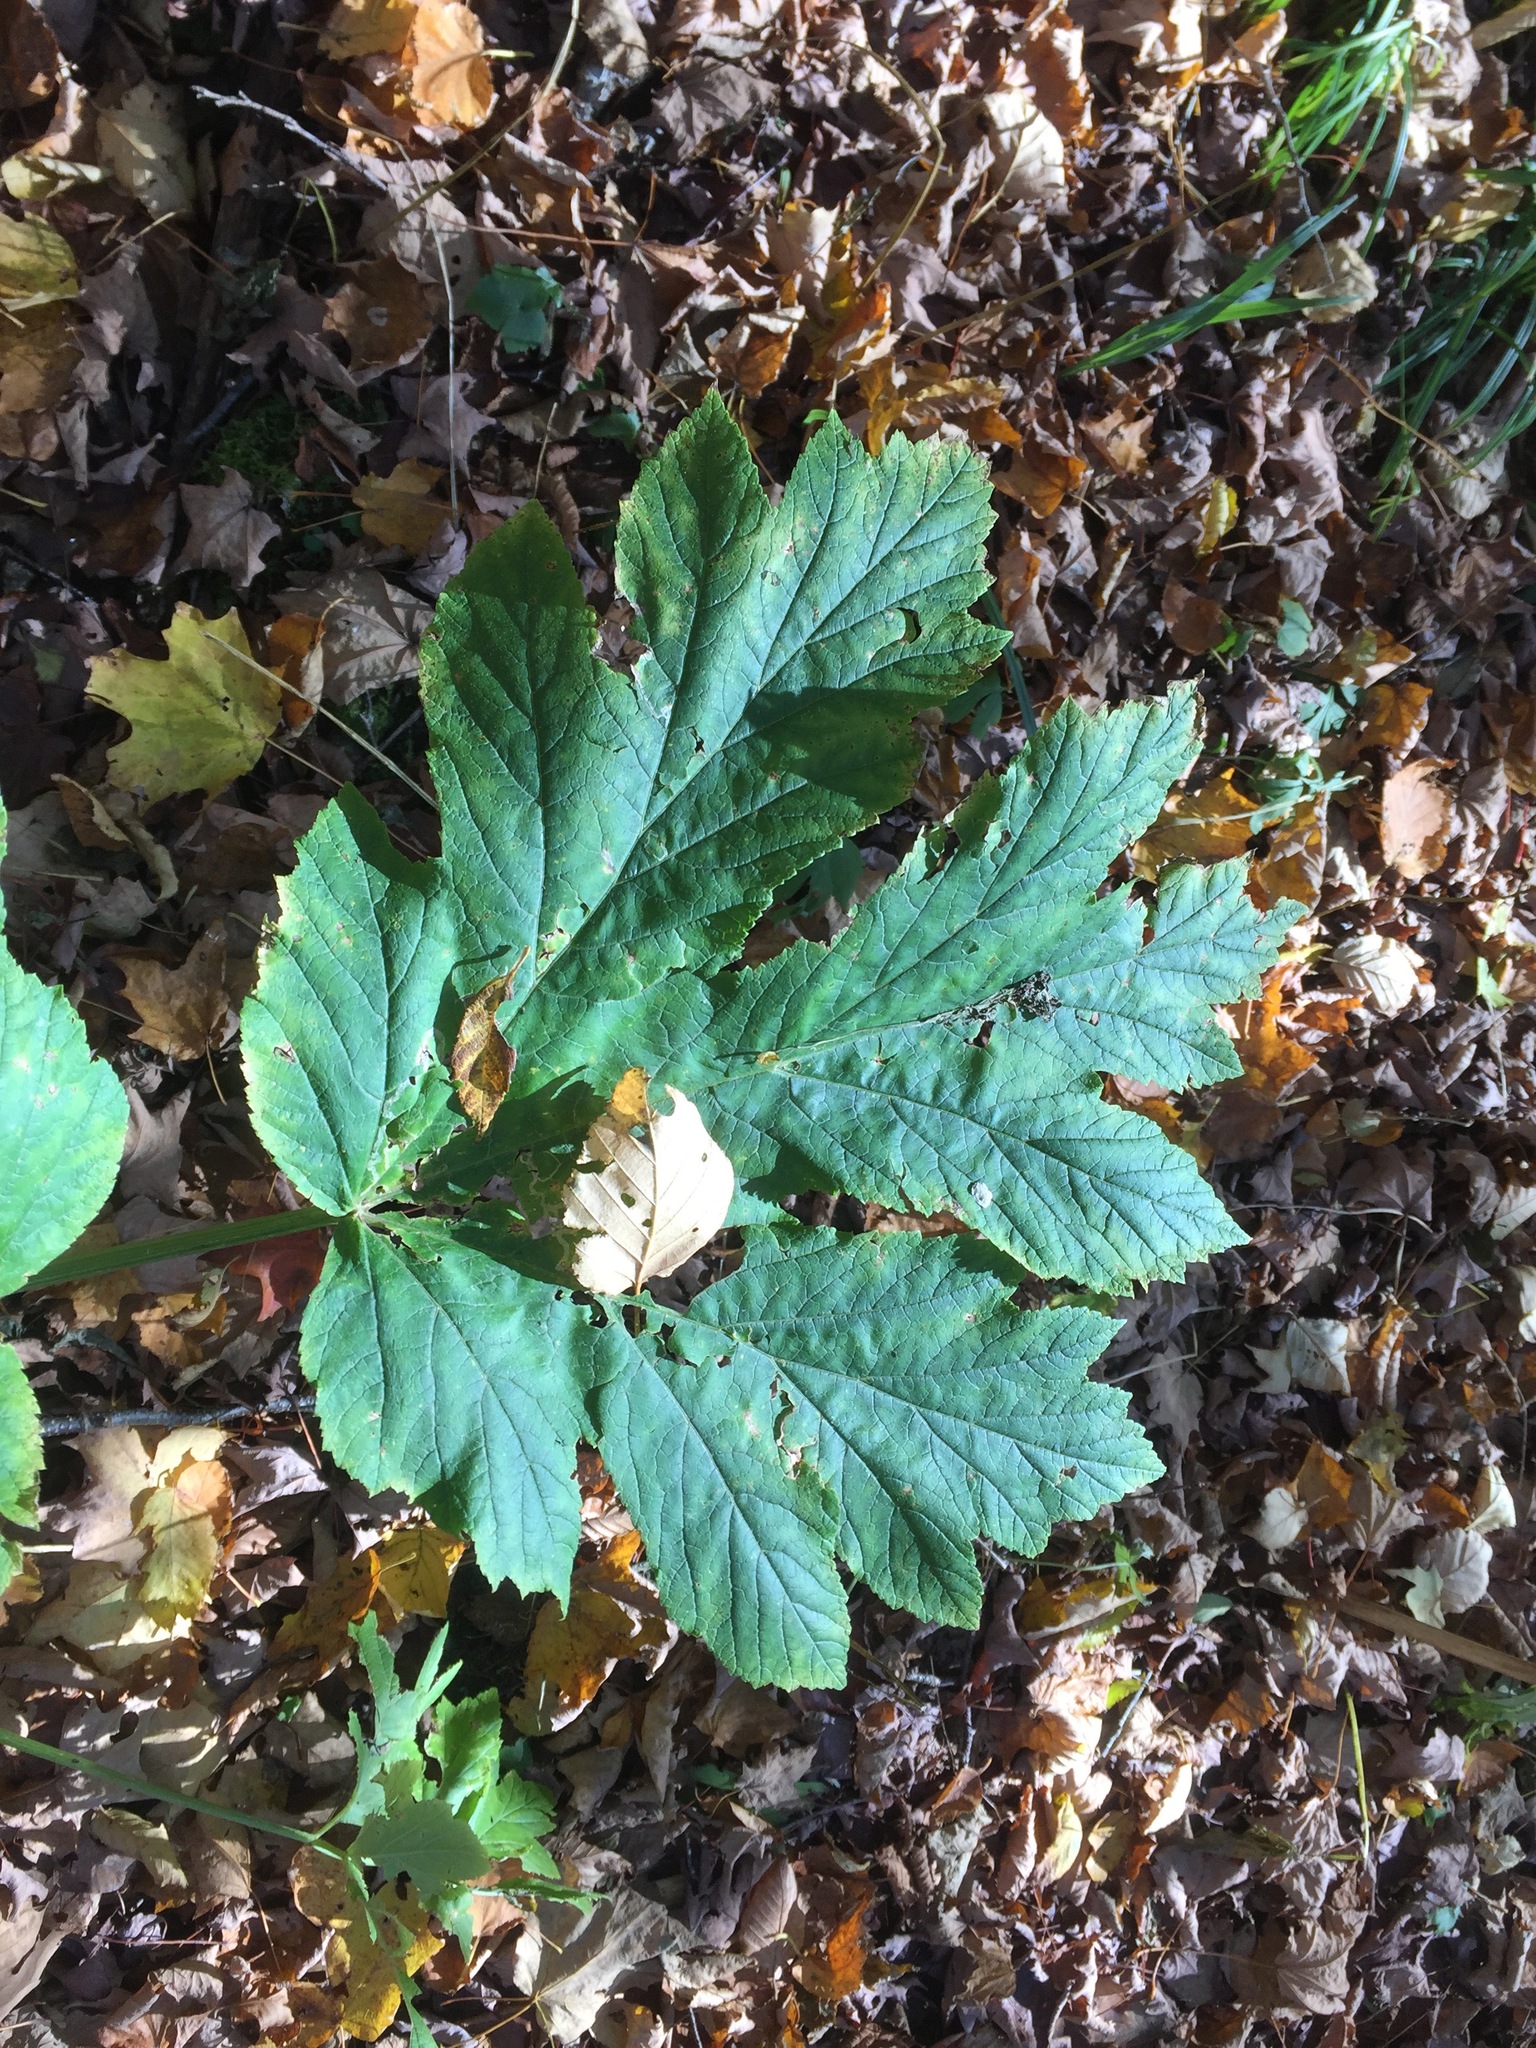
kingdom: Plantae
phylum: Tracheophyta
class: Magnoliopsida
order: Apiales
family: Apiaceae
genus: Heracleum
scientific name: Heracleum maximum
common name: American cow parsnip
